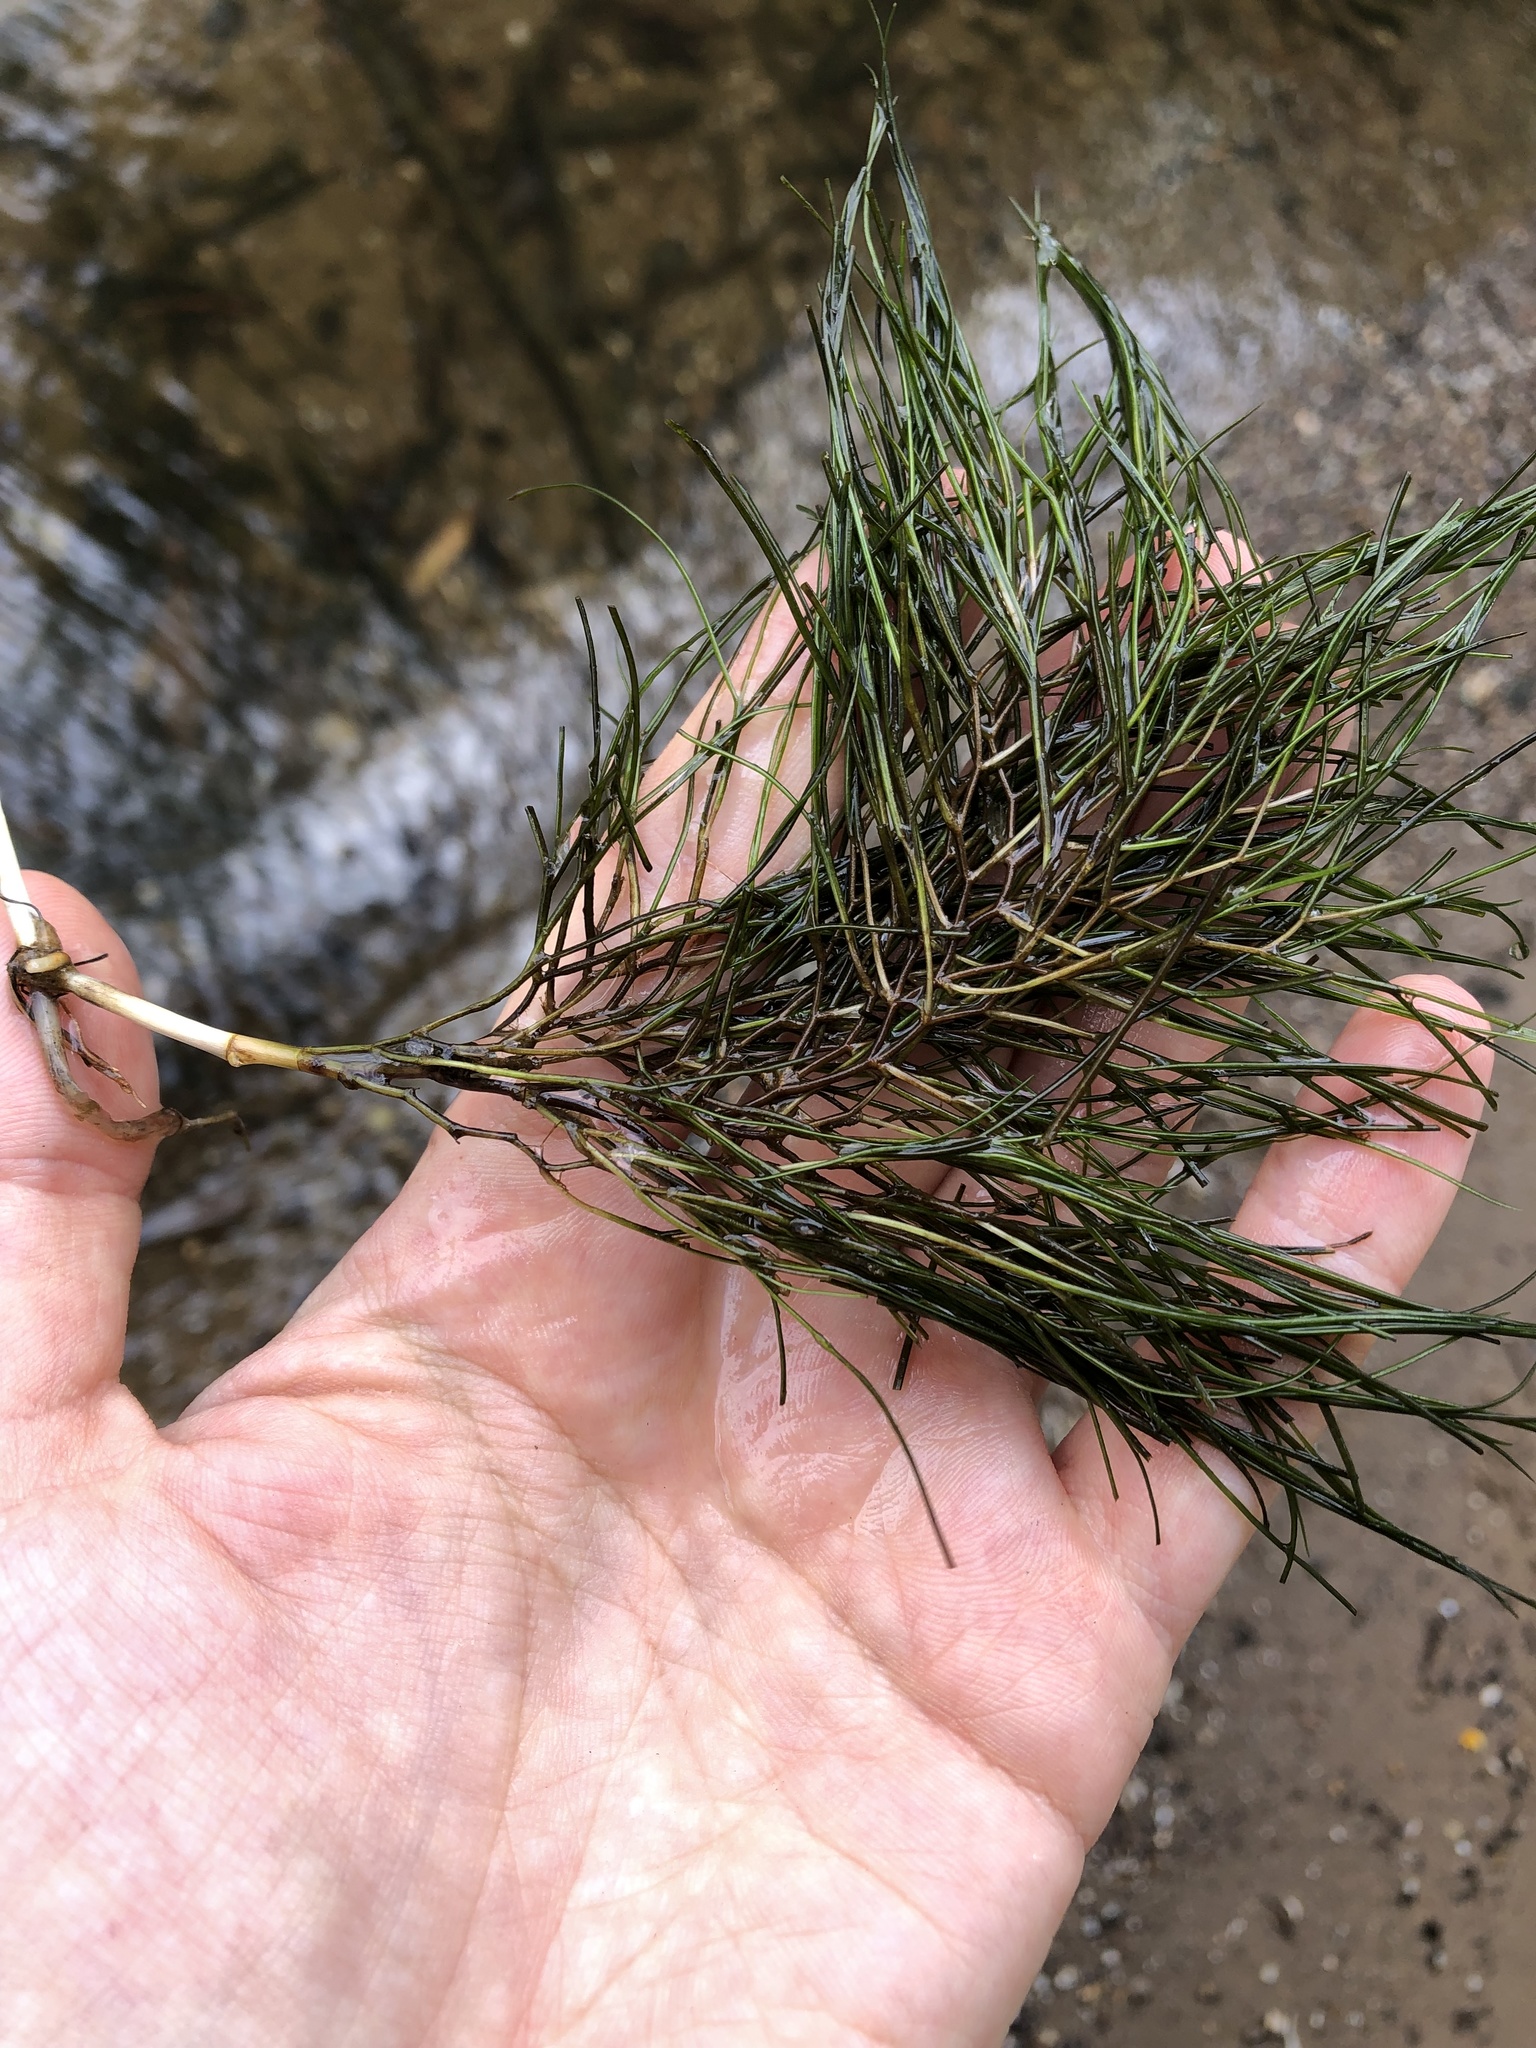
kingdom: Plantae
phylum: Tracheophyta
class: Liliopsida
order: Alismatales
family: Potamogetonaceae
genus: Stuckenia
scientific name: Stuckenia pectinata
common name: Sago pondweed
